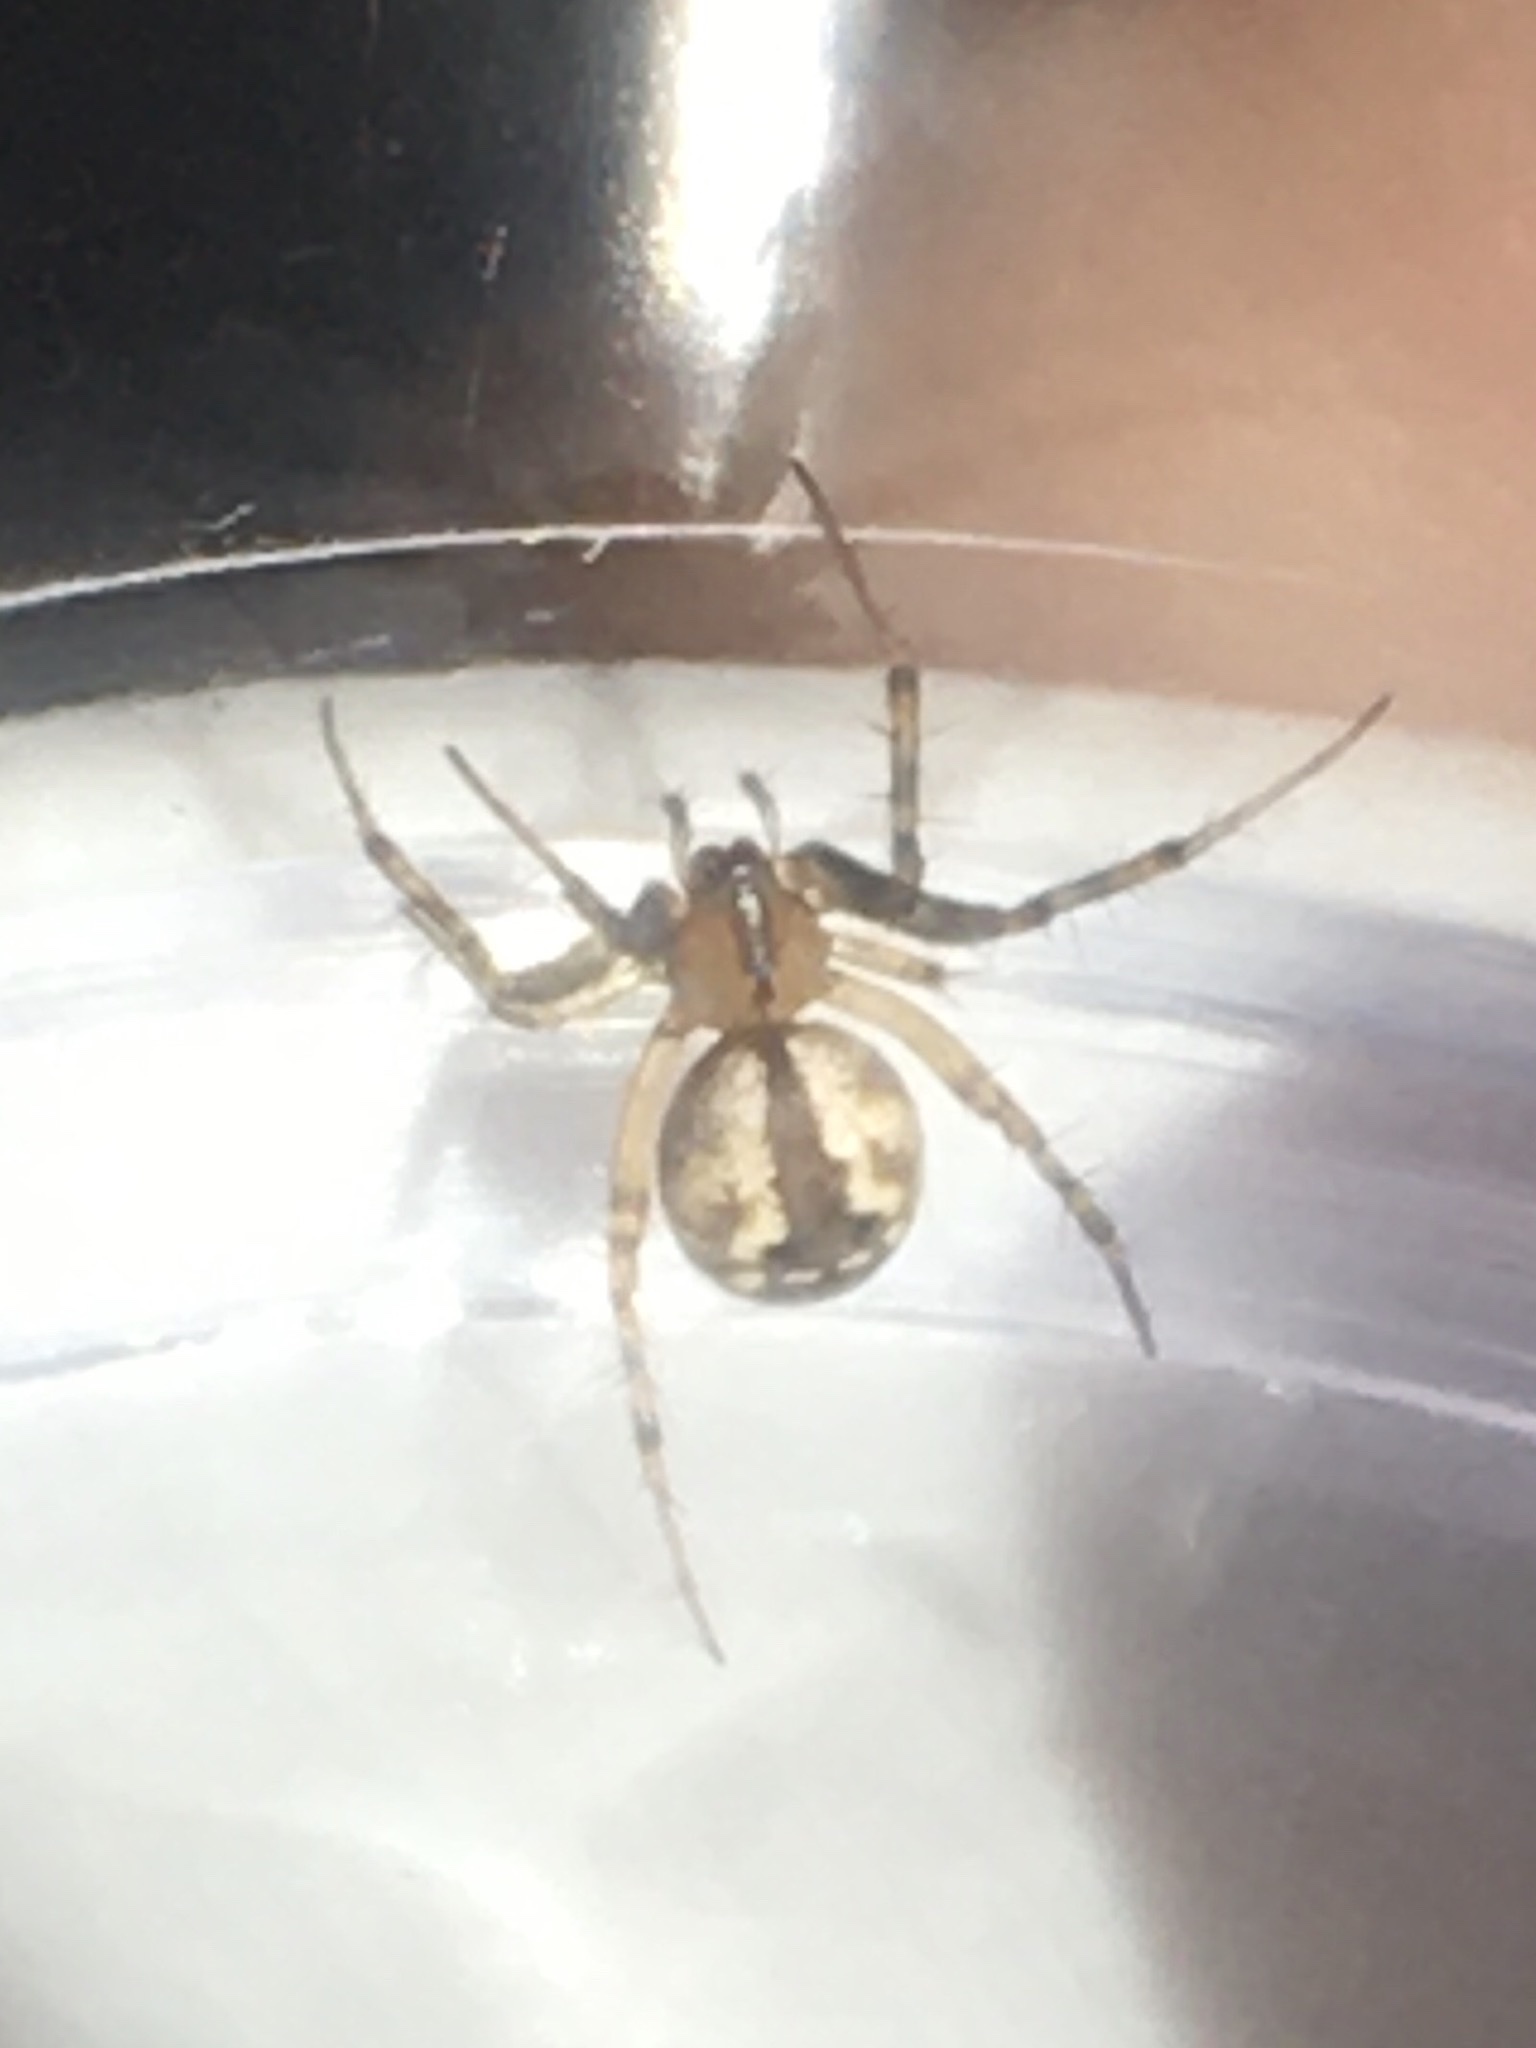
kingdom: Animalia
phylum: Arthropoda
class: Arachnida
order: Araneae
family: Araneidae
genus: Mangora
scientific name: Mangora placida
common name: Tuft-legged orbweaver
